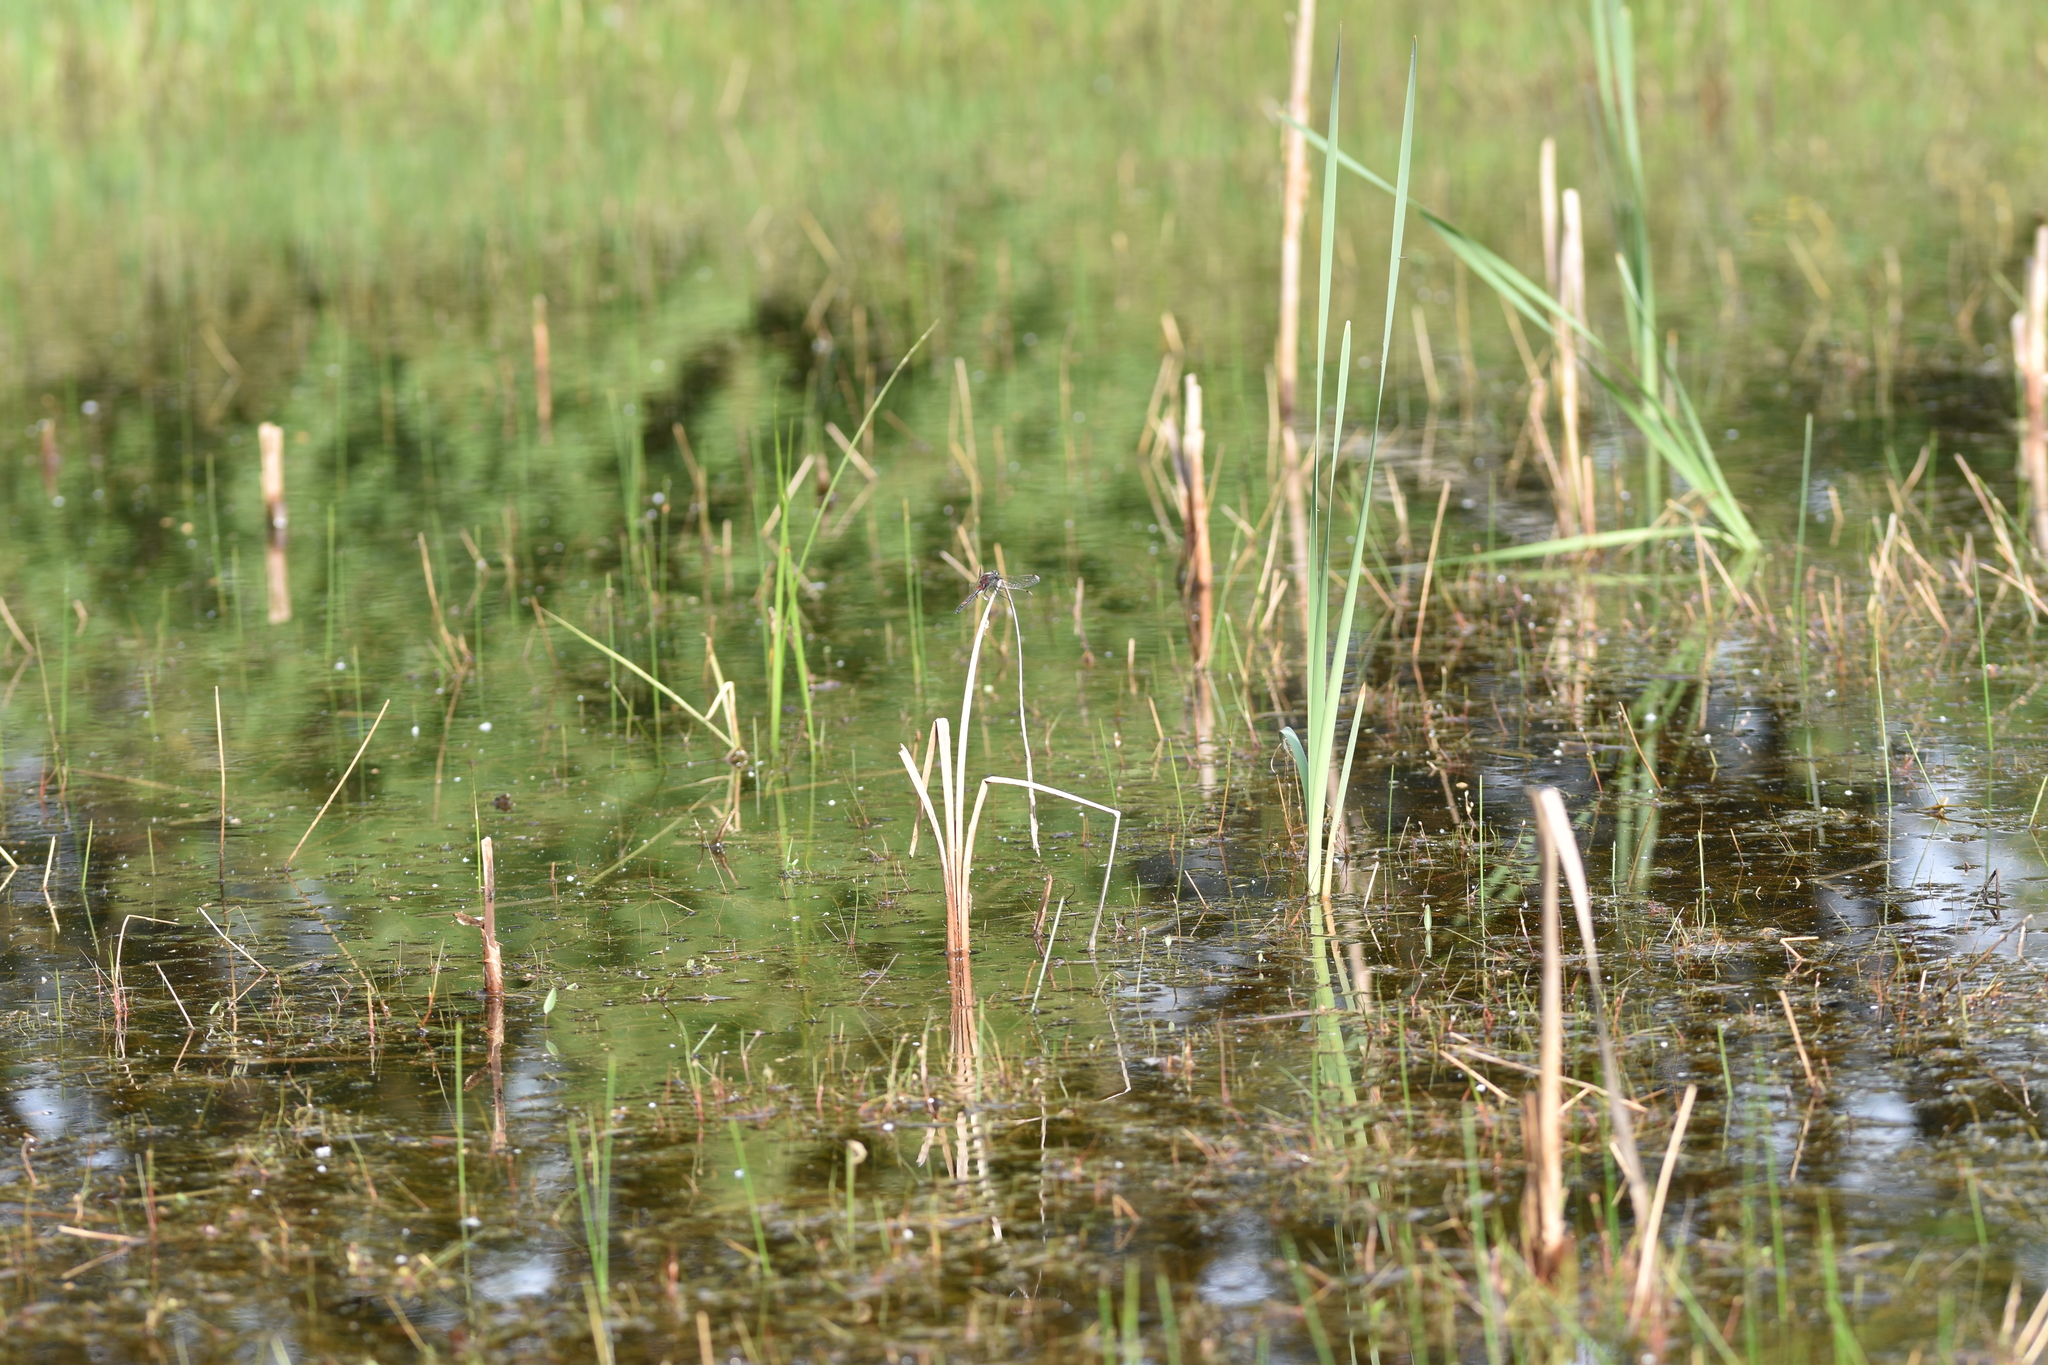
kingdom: Animalia
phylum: Arthropoda
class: Insecta
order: Odonata
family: Libellulidae
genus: Leucorrhinia
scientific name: Leucorrhinia rubicunda
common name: Ruby whiteface
